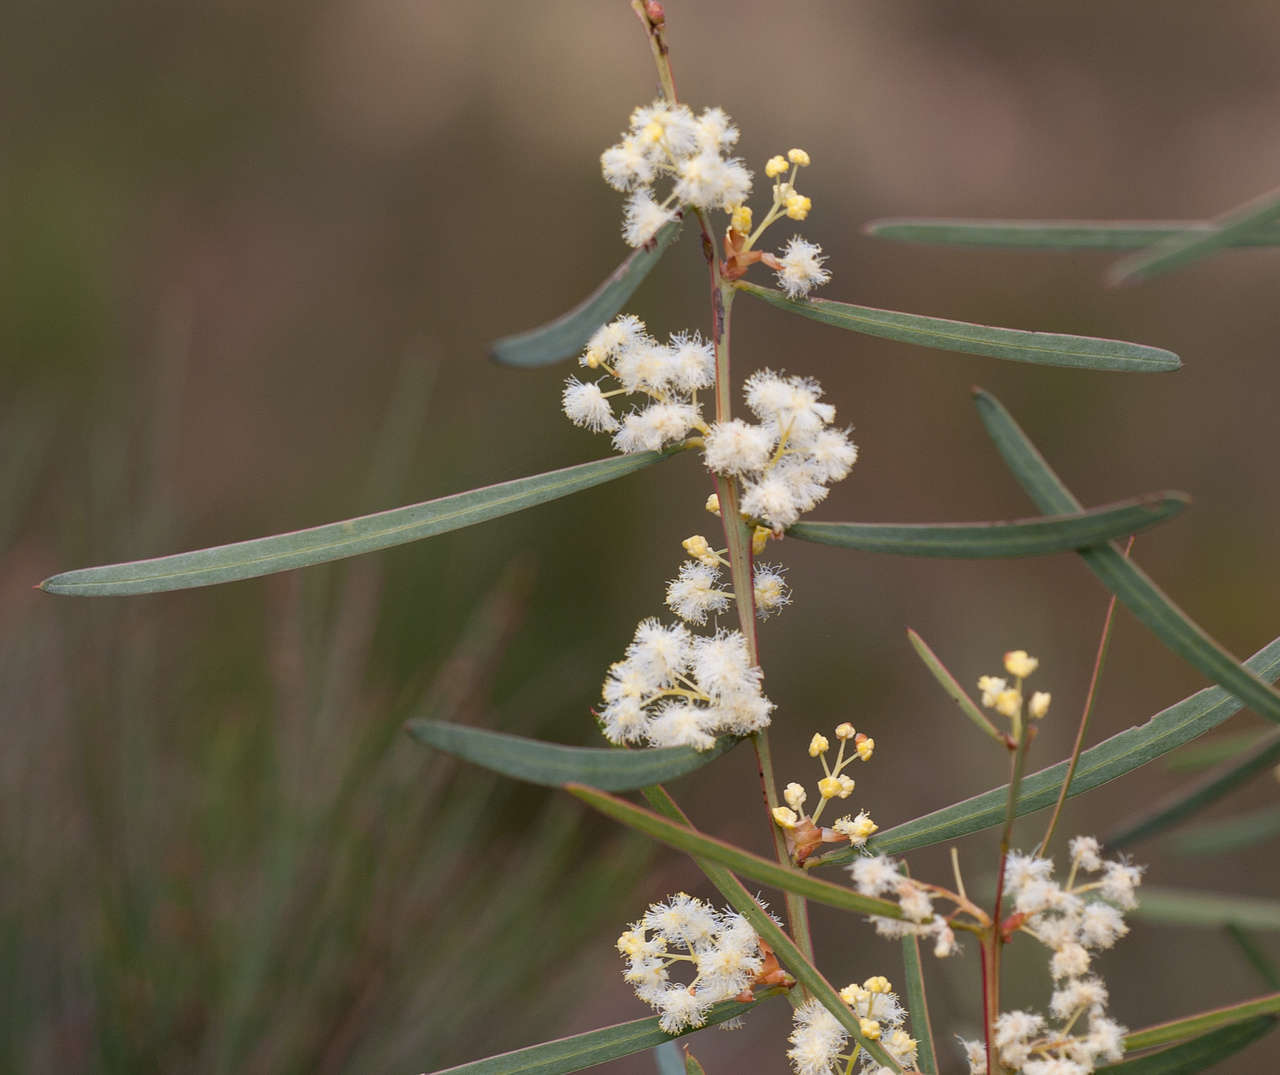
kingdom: Plantae
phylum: Tracheophyta
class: Magnoliopsida
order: Fabales
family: Fabaceae
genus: Acacia
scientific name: Acacia suaveolens
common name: Sweet acacia
